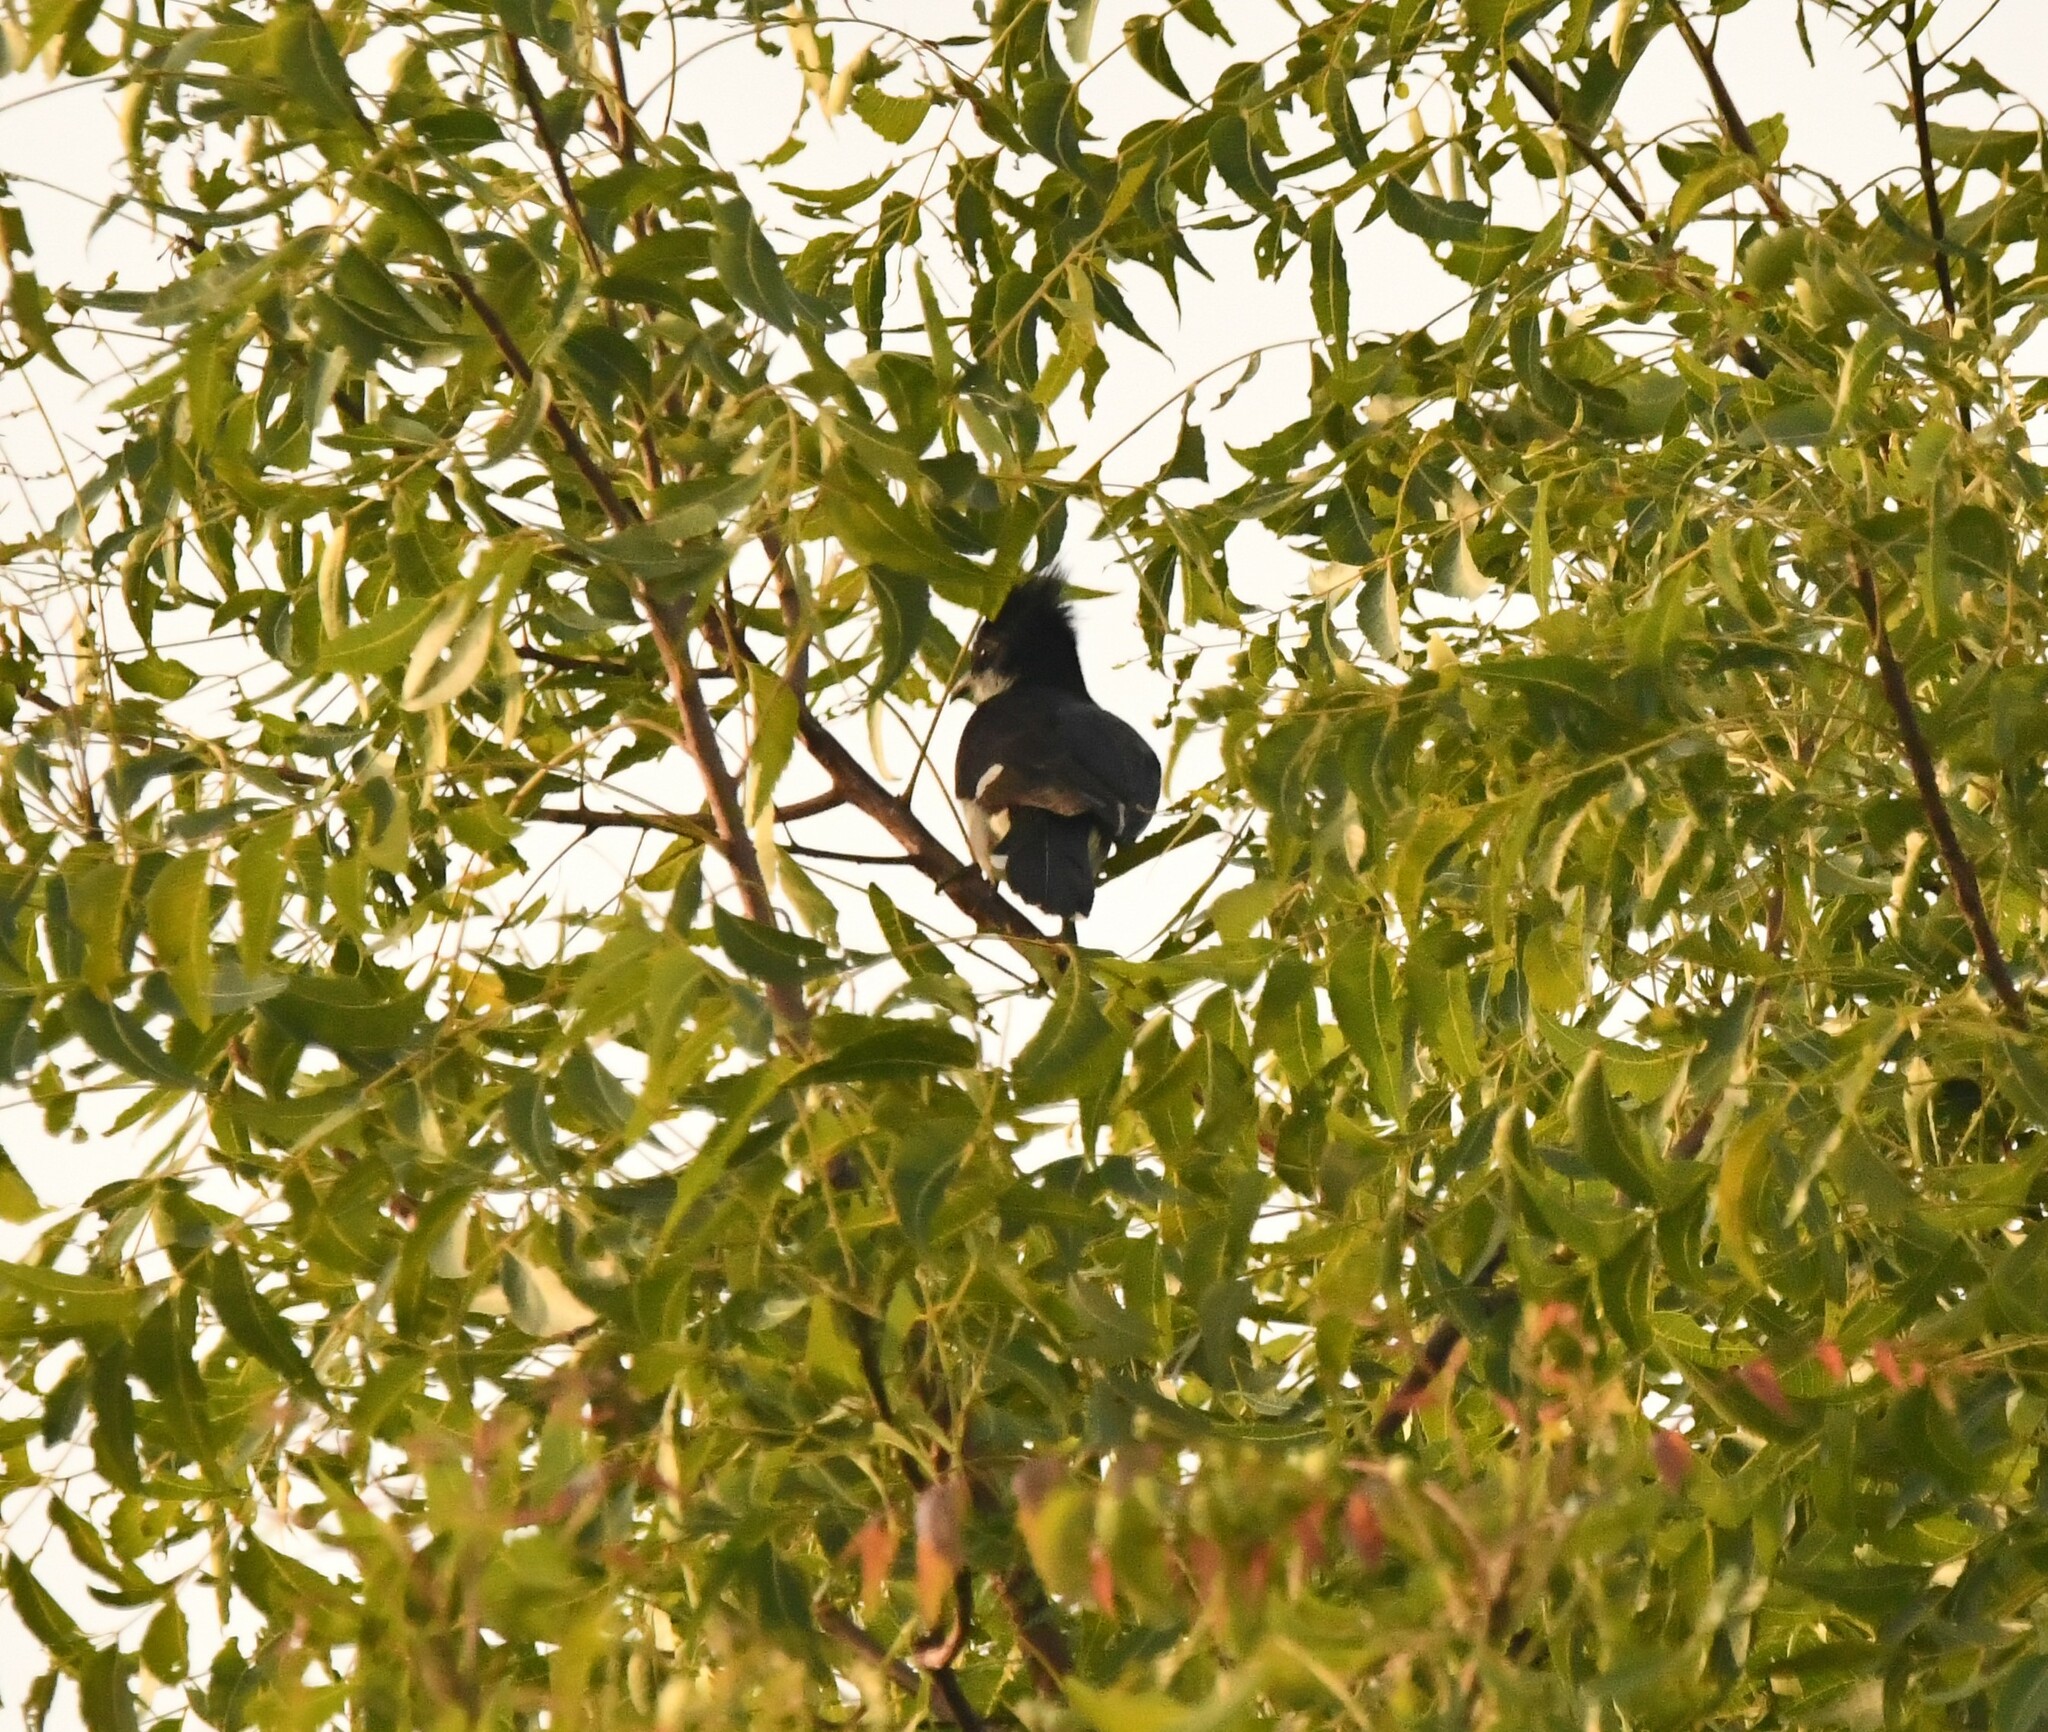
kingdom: Animalia
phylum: Chordata
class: Aves
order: Cuculiformes
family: Cuculidae
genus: Clamator
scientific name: Clamator jacobinus
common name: Jacobin cuckoo
